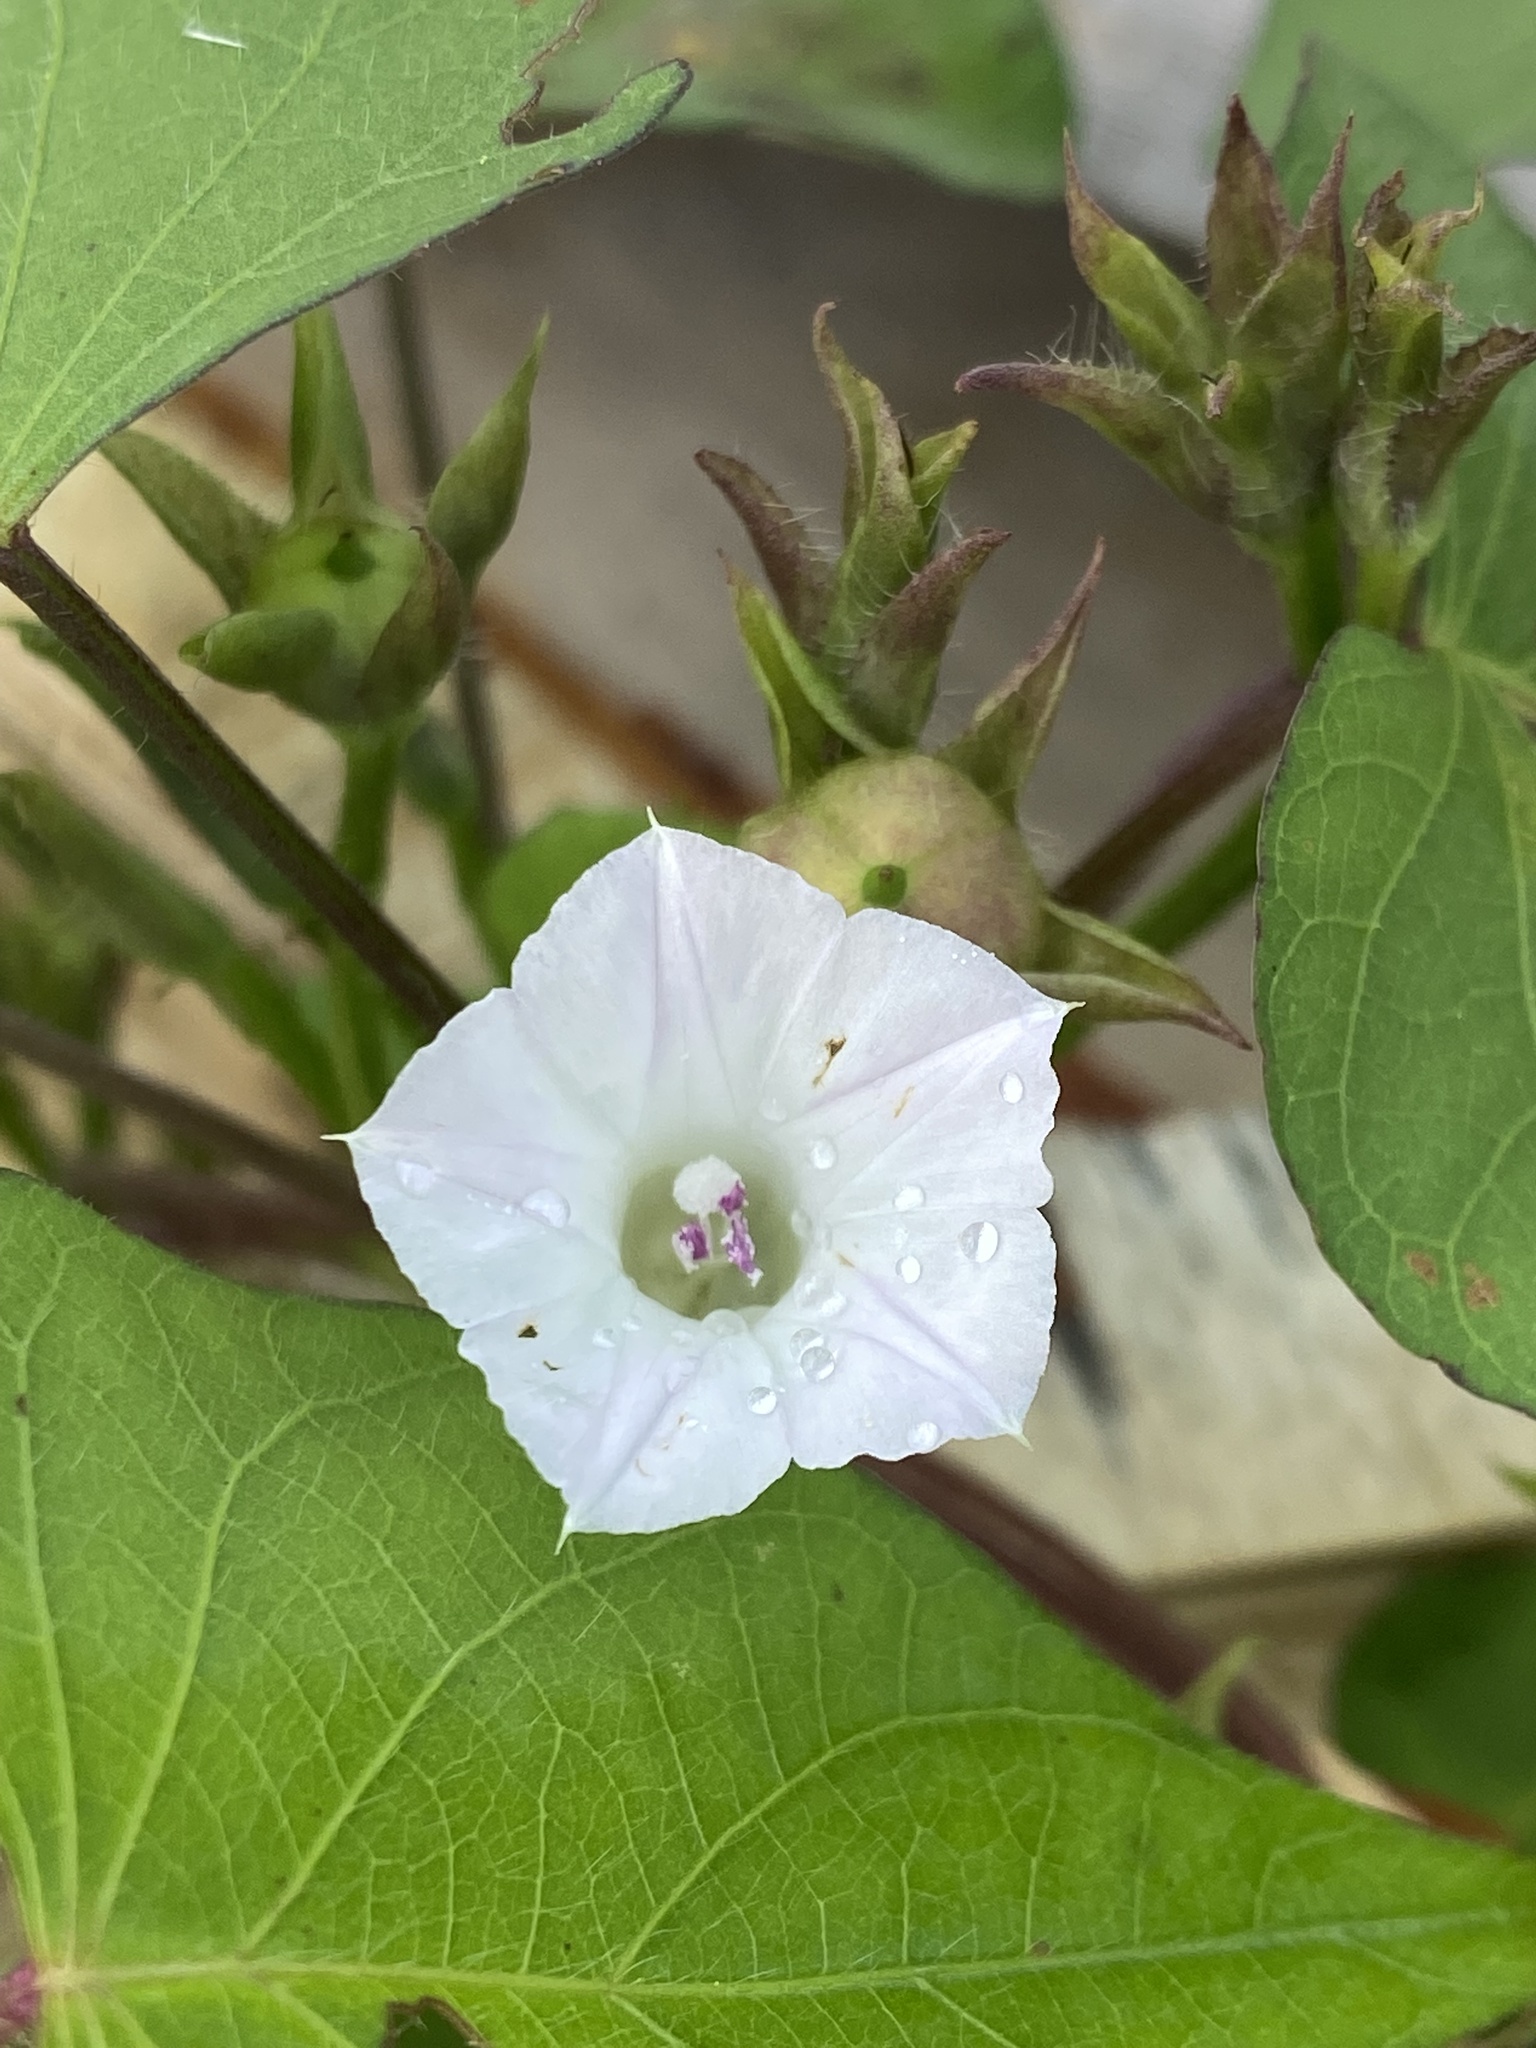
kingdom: Plantae
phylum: Tracheophyta
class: Magnoliopsida
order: Solanales
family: Convolvulaceae
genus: Ipomoea
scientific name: Ipomoea lacunosa
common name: White morning-glory
